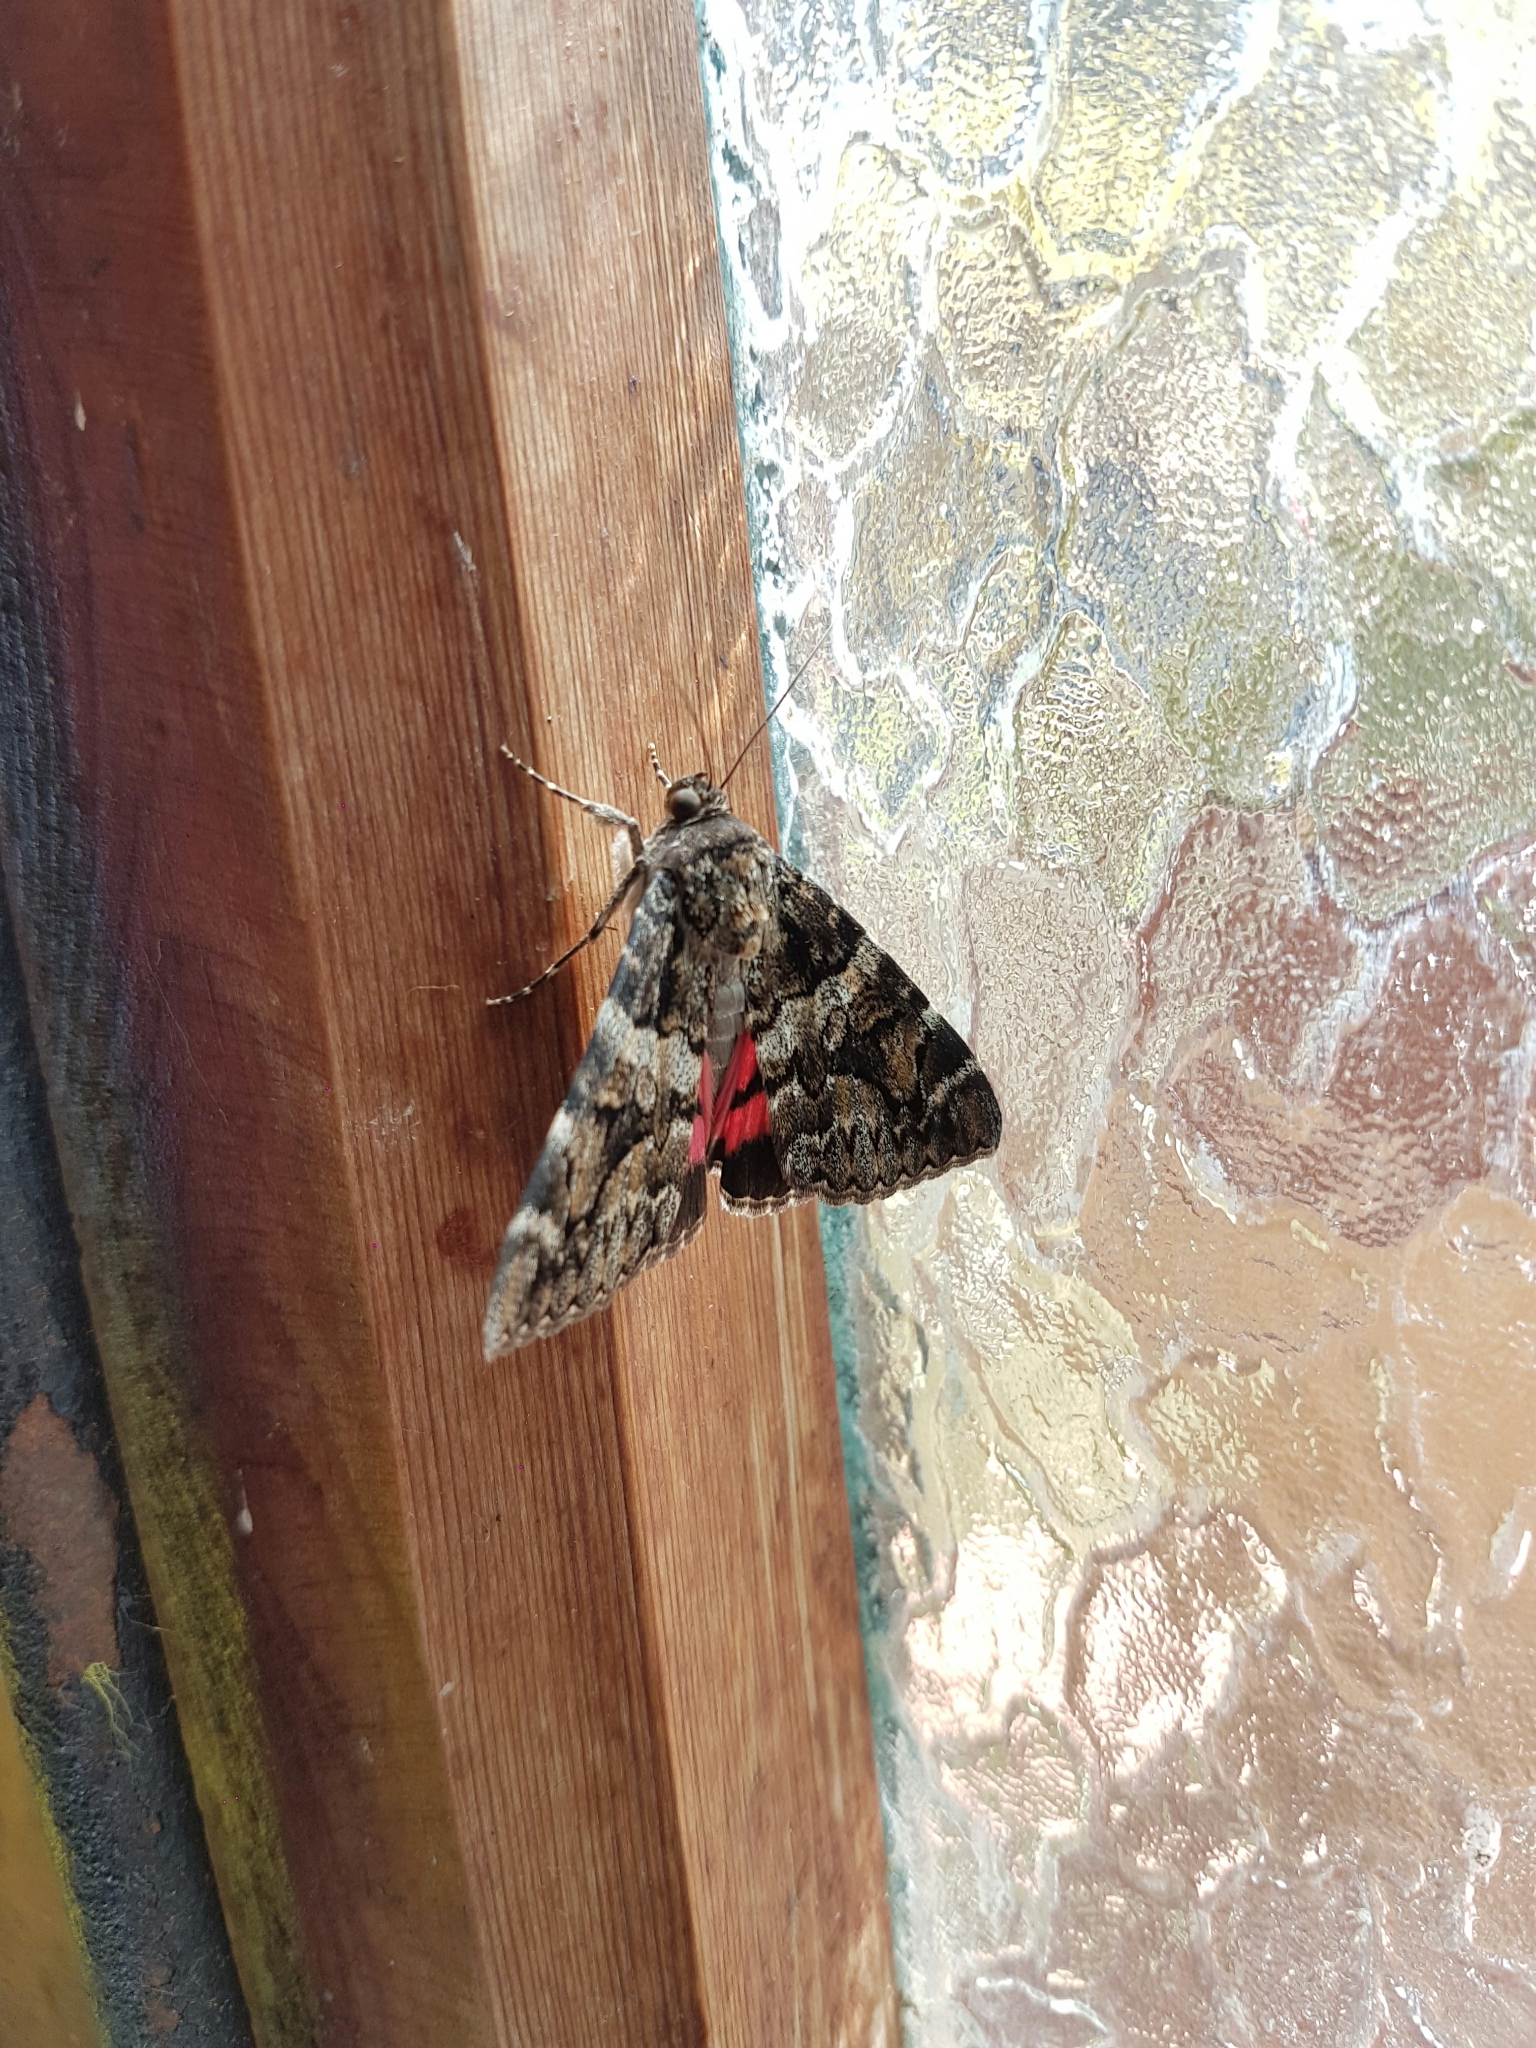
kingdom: Animalia
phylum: Arthropoda
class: Insecta
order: Lepidoptera
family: Erebidae
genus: Catocala
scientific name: Catocala coniuncta
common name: Minsmere crimson underwing
